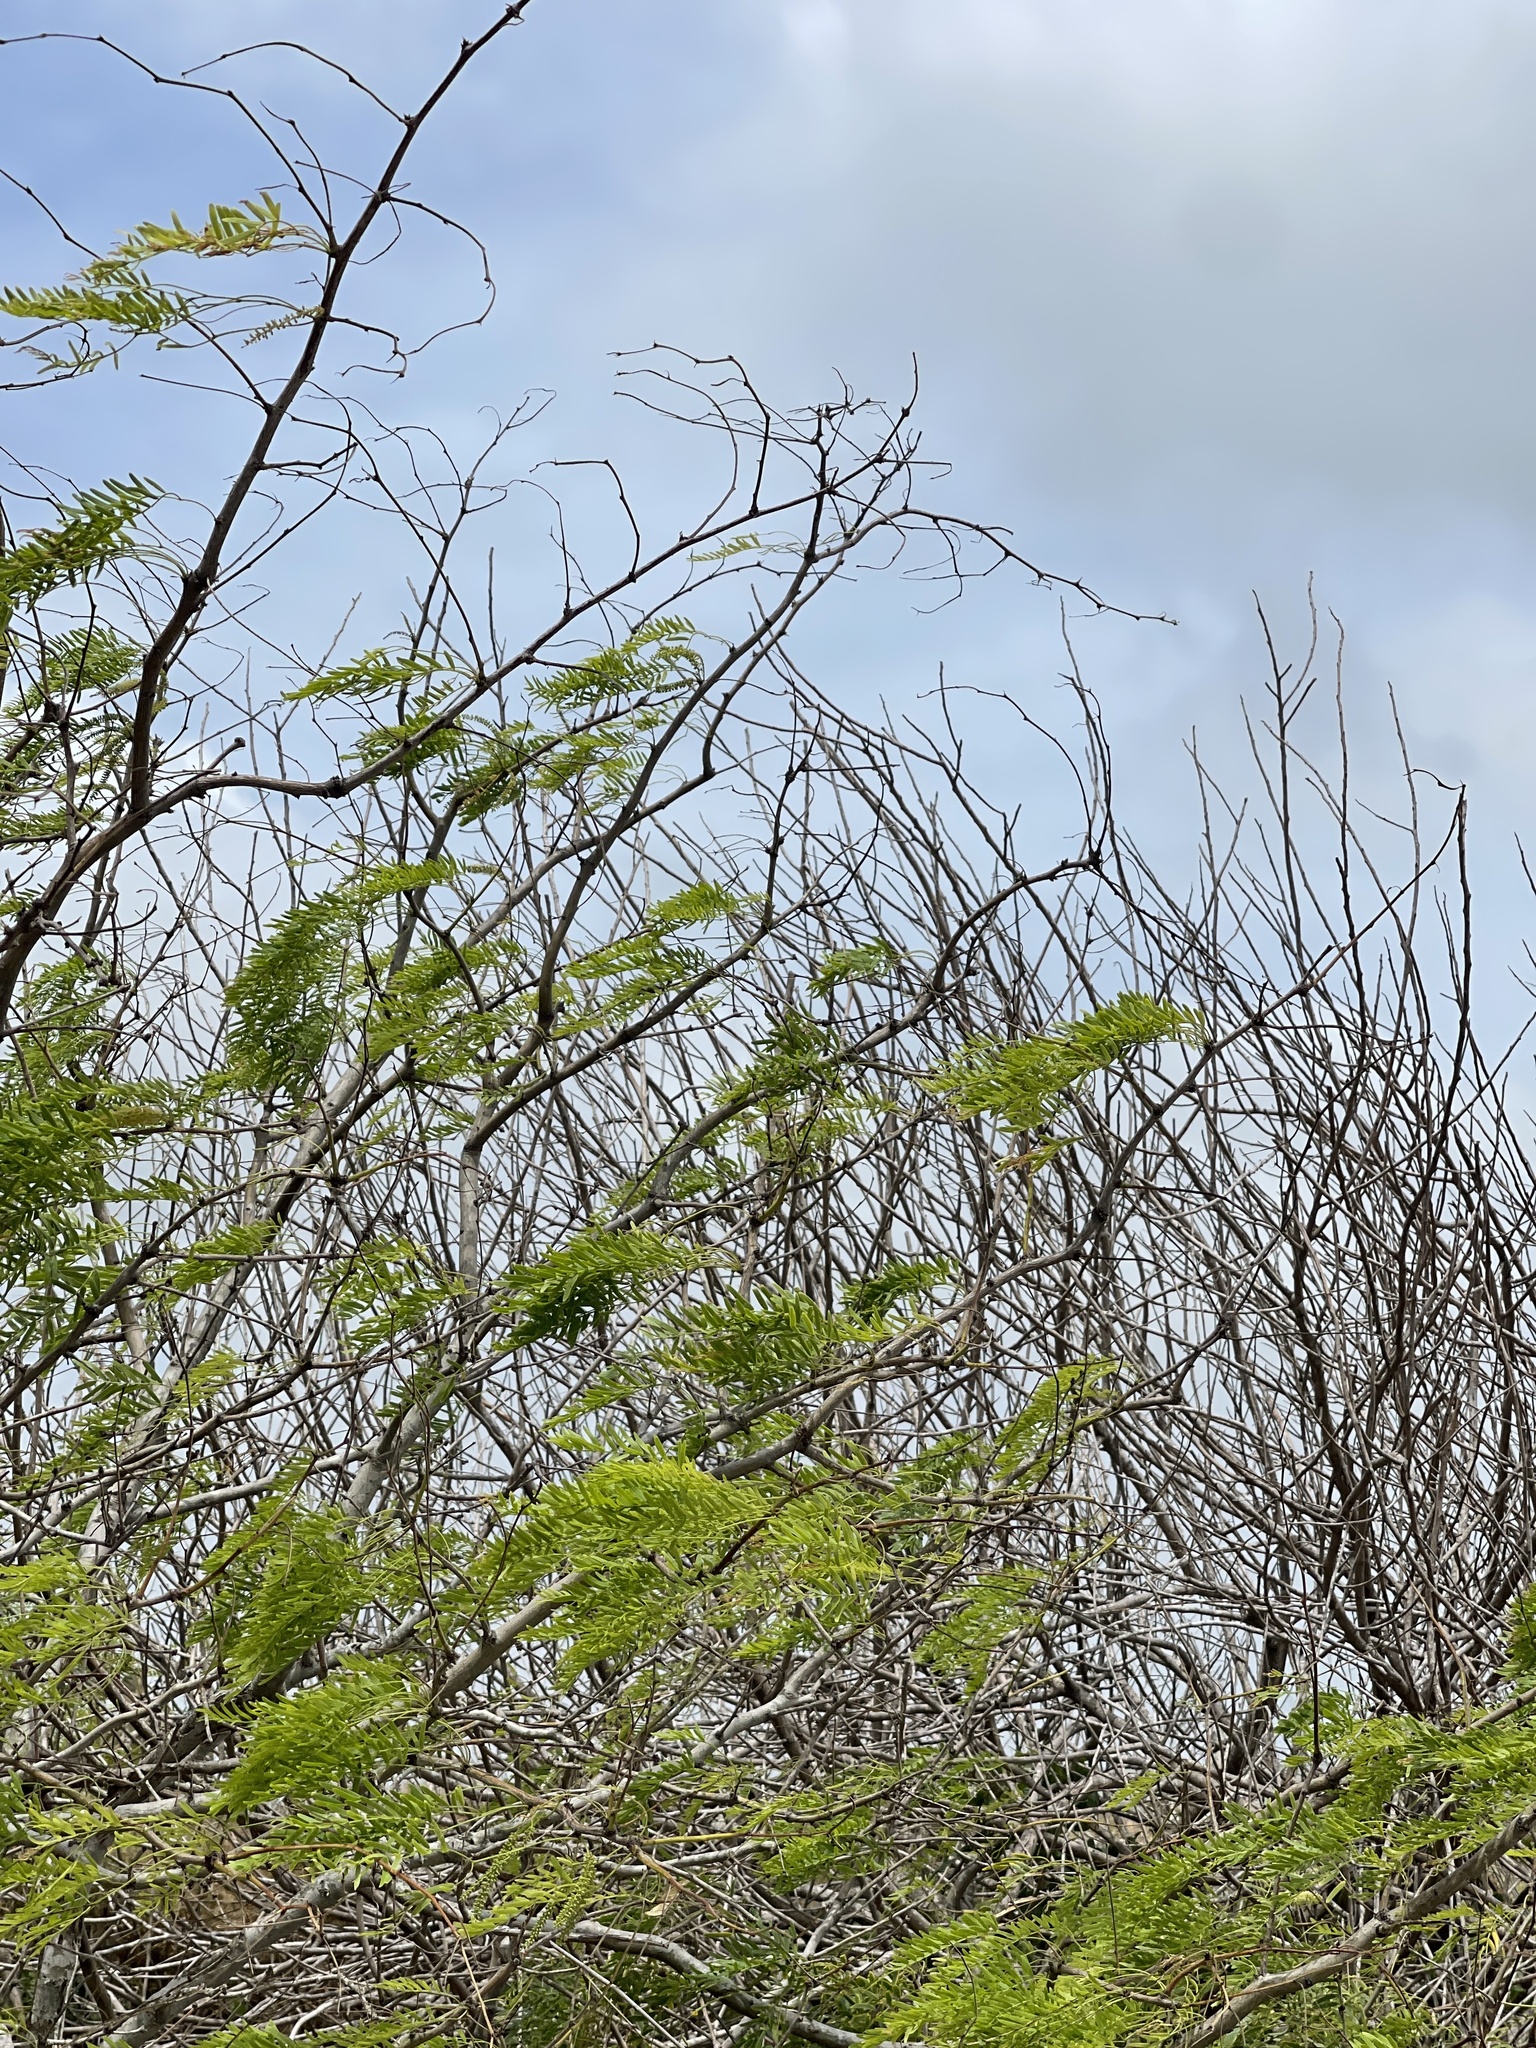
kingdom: Plantae
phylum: Tracheophyta
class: Magnoliopsida
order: Fabales
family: Fabaceae
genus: Prosopis
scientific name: Prosopis glandulosa
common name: Honey mesquite
